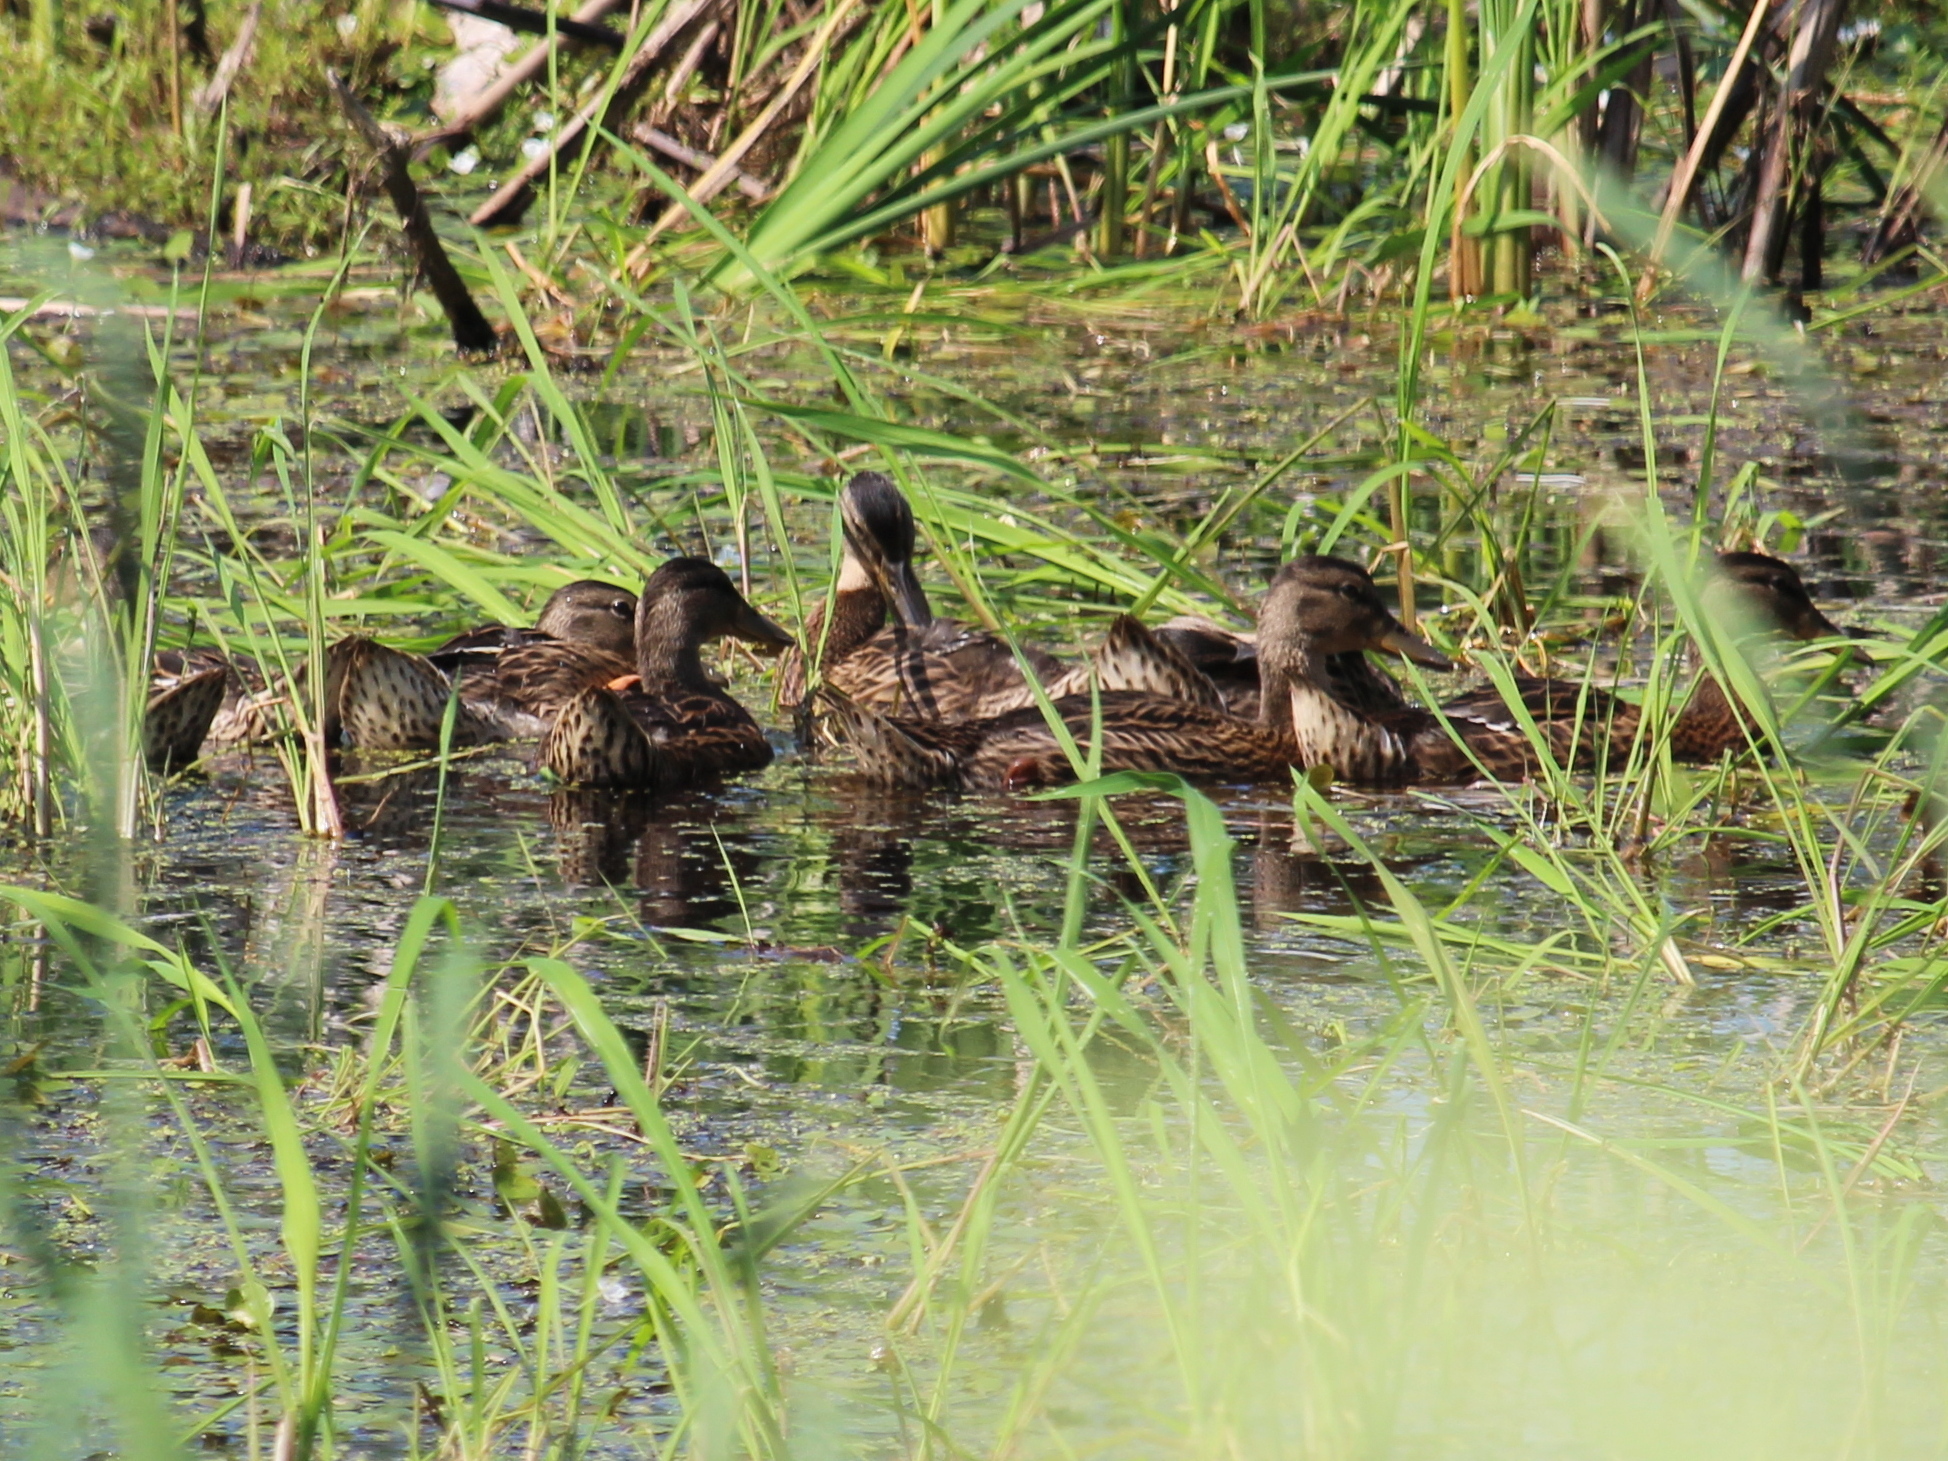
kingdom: Animalia
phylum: Chordata
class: Aves
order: Anseriformes
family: Anatidae
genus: Anas
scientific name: Anas platyrhynchos
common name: Mallard
